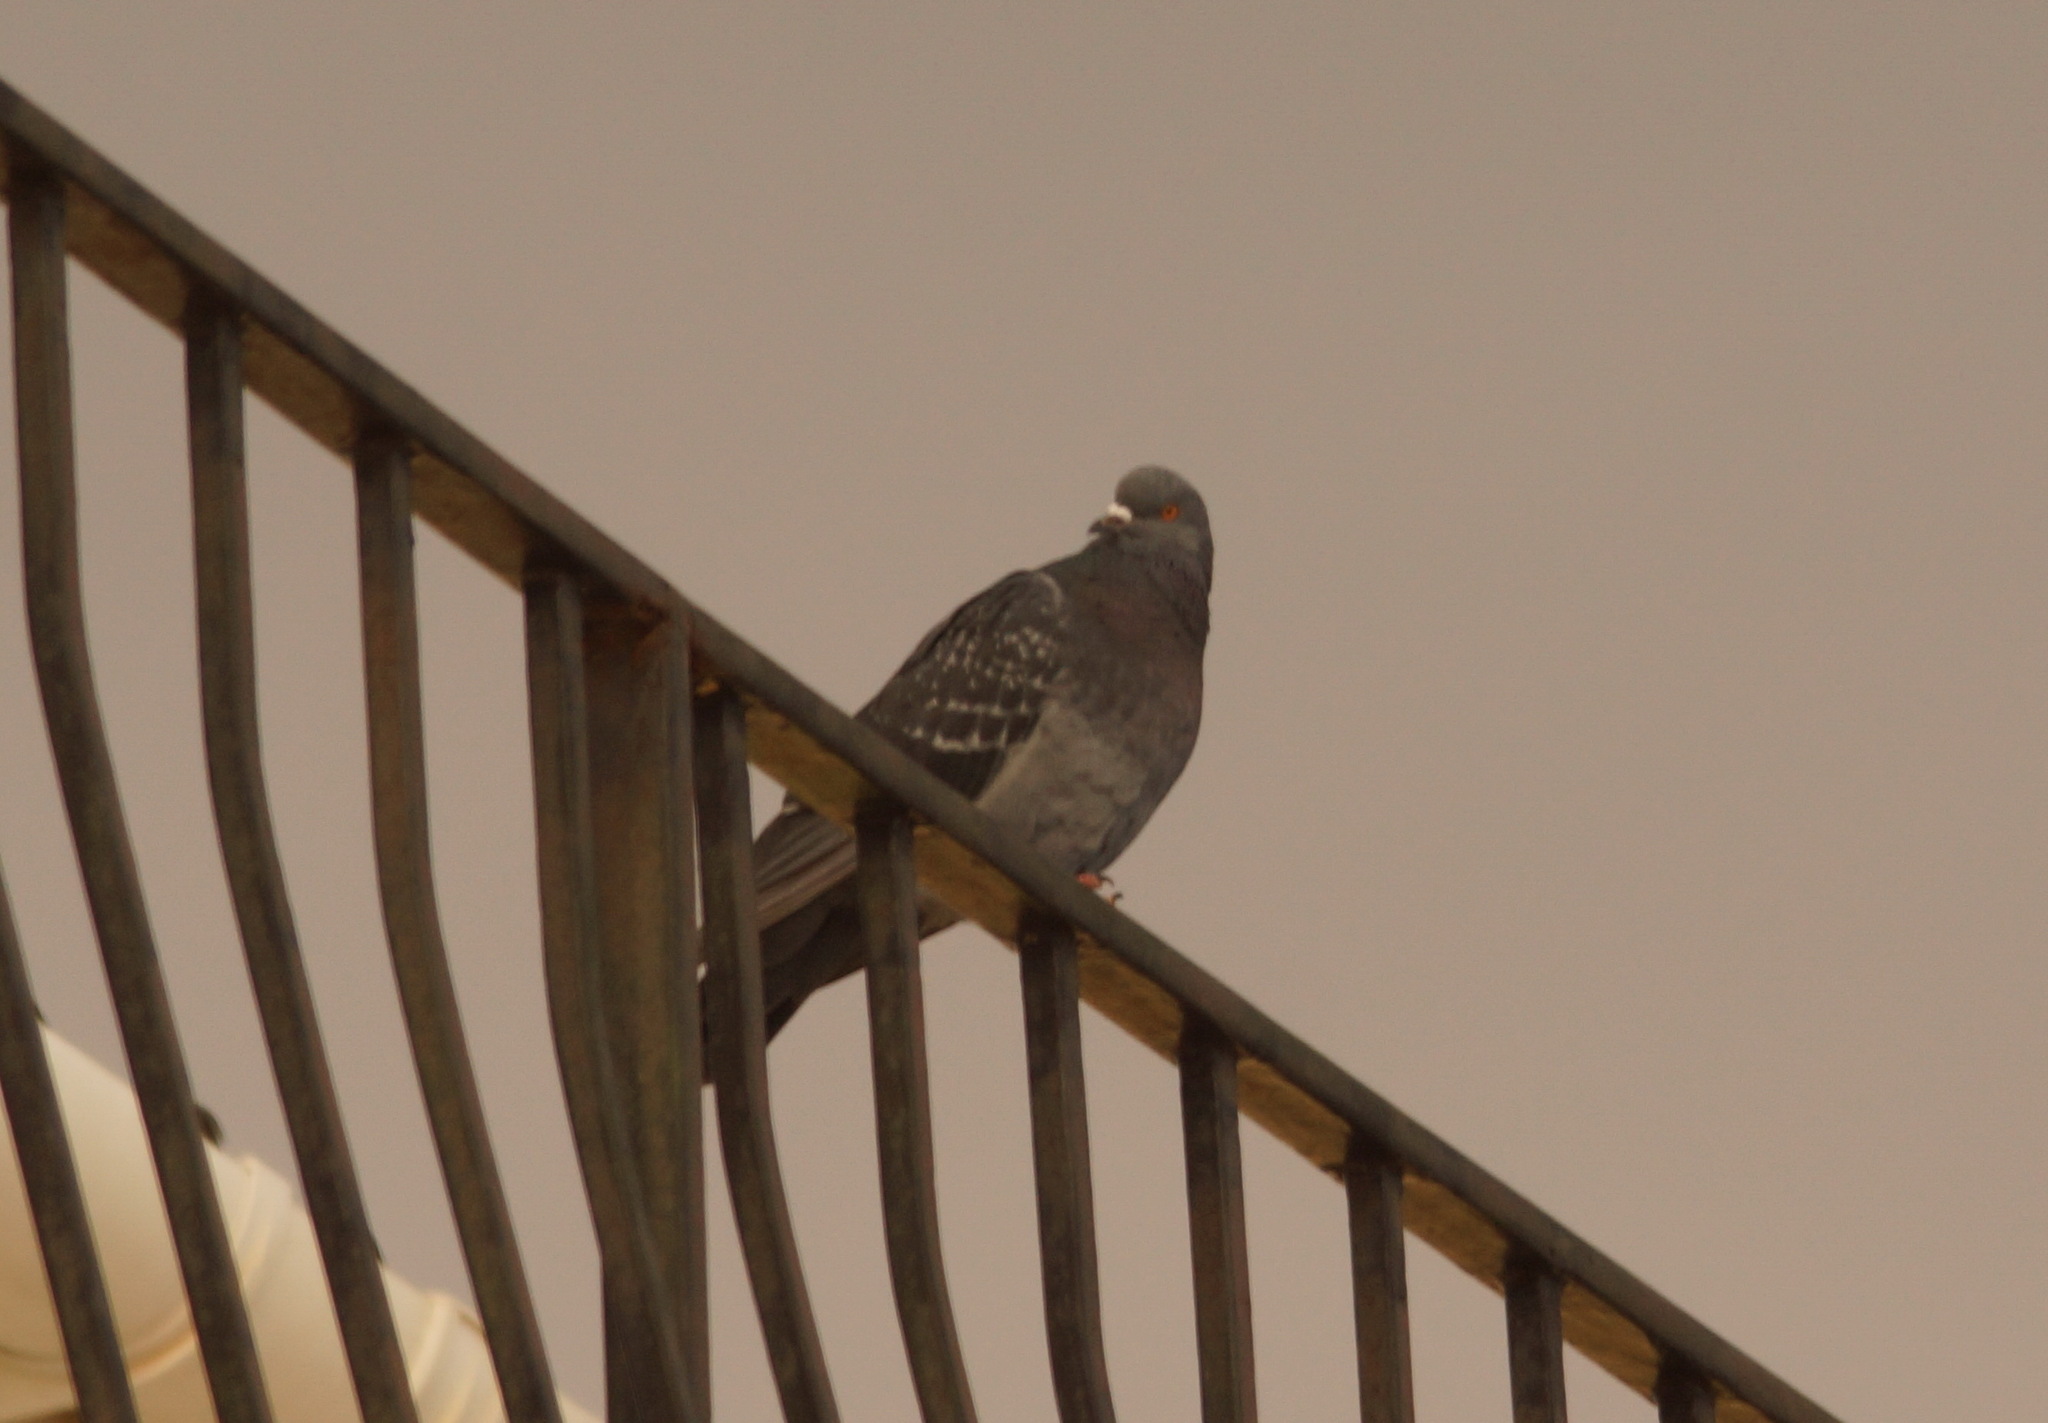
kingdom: Animalia
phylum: Chordata
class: Aves
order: Columbiformes
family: Columbidae
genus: Columba
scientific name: Columba livia
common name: Rock pigeon
